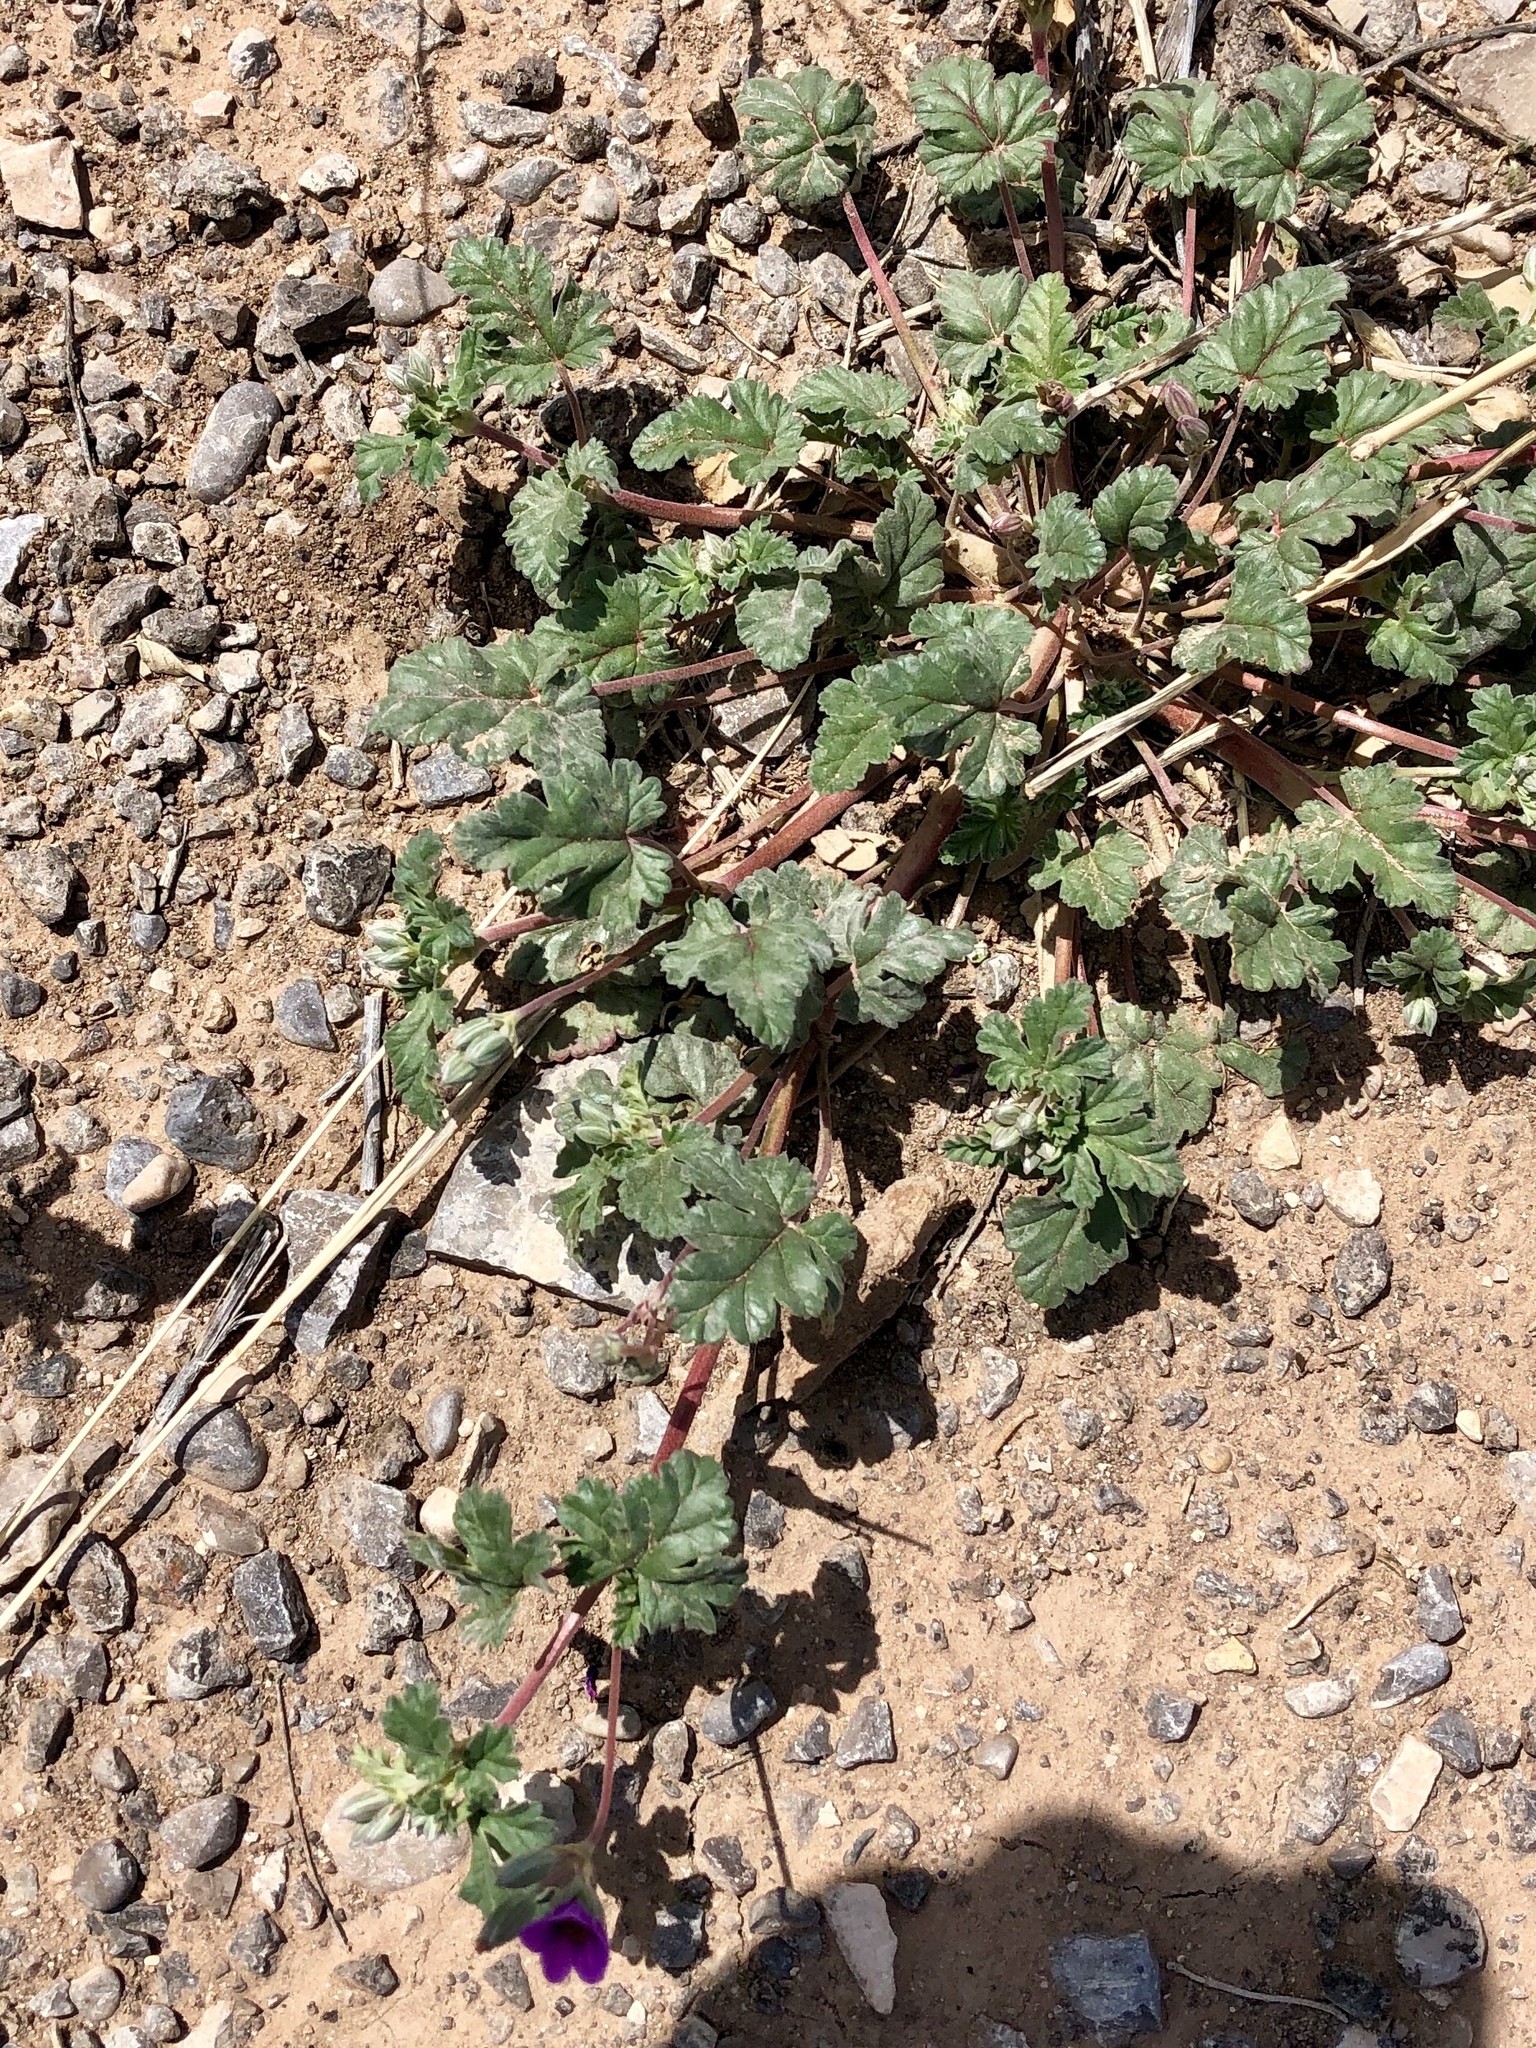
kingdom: Plantae
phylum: Tracheophyta
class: Magnoliopsida
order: Geraniales
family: Geraniaceae
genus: Erodium
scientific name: Erodium texanum
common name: Texas stork's-bill
